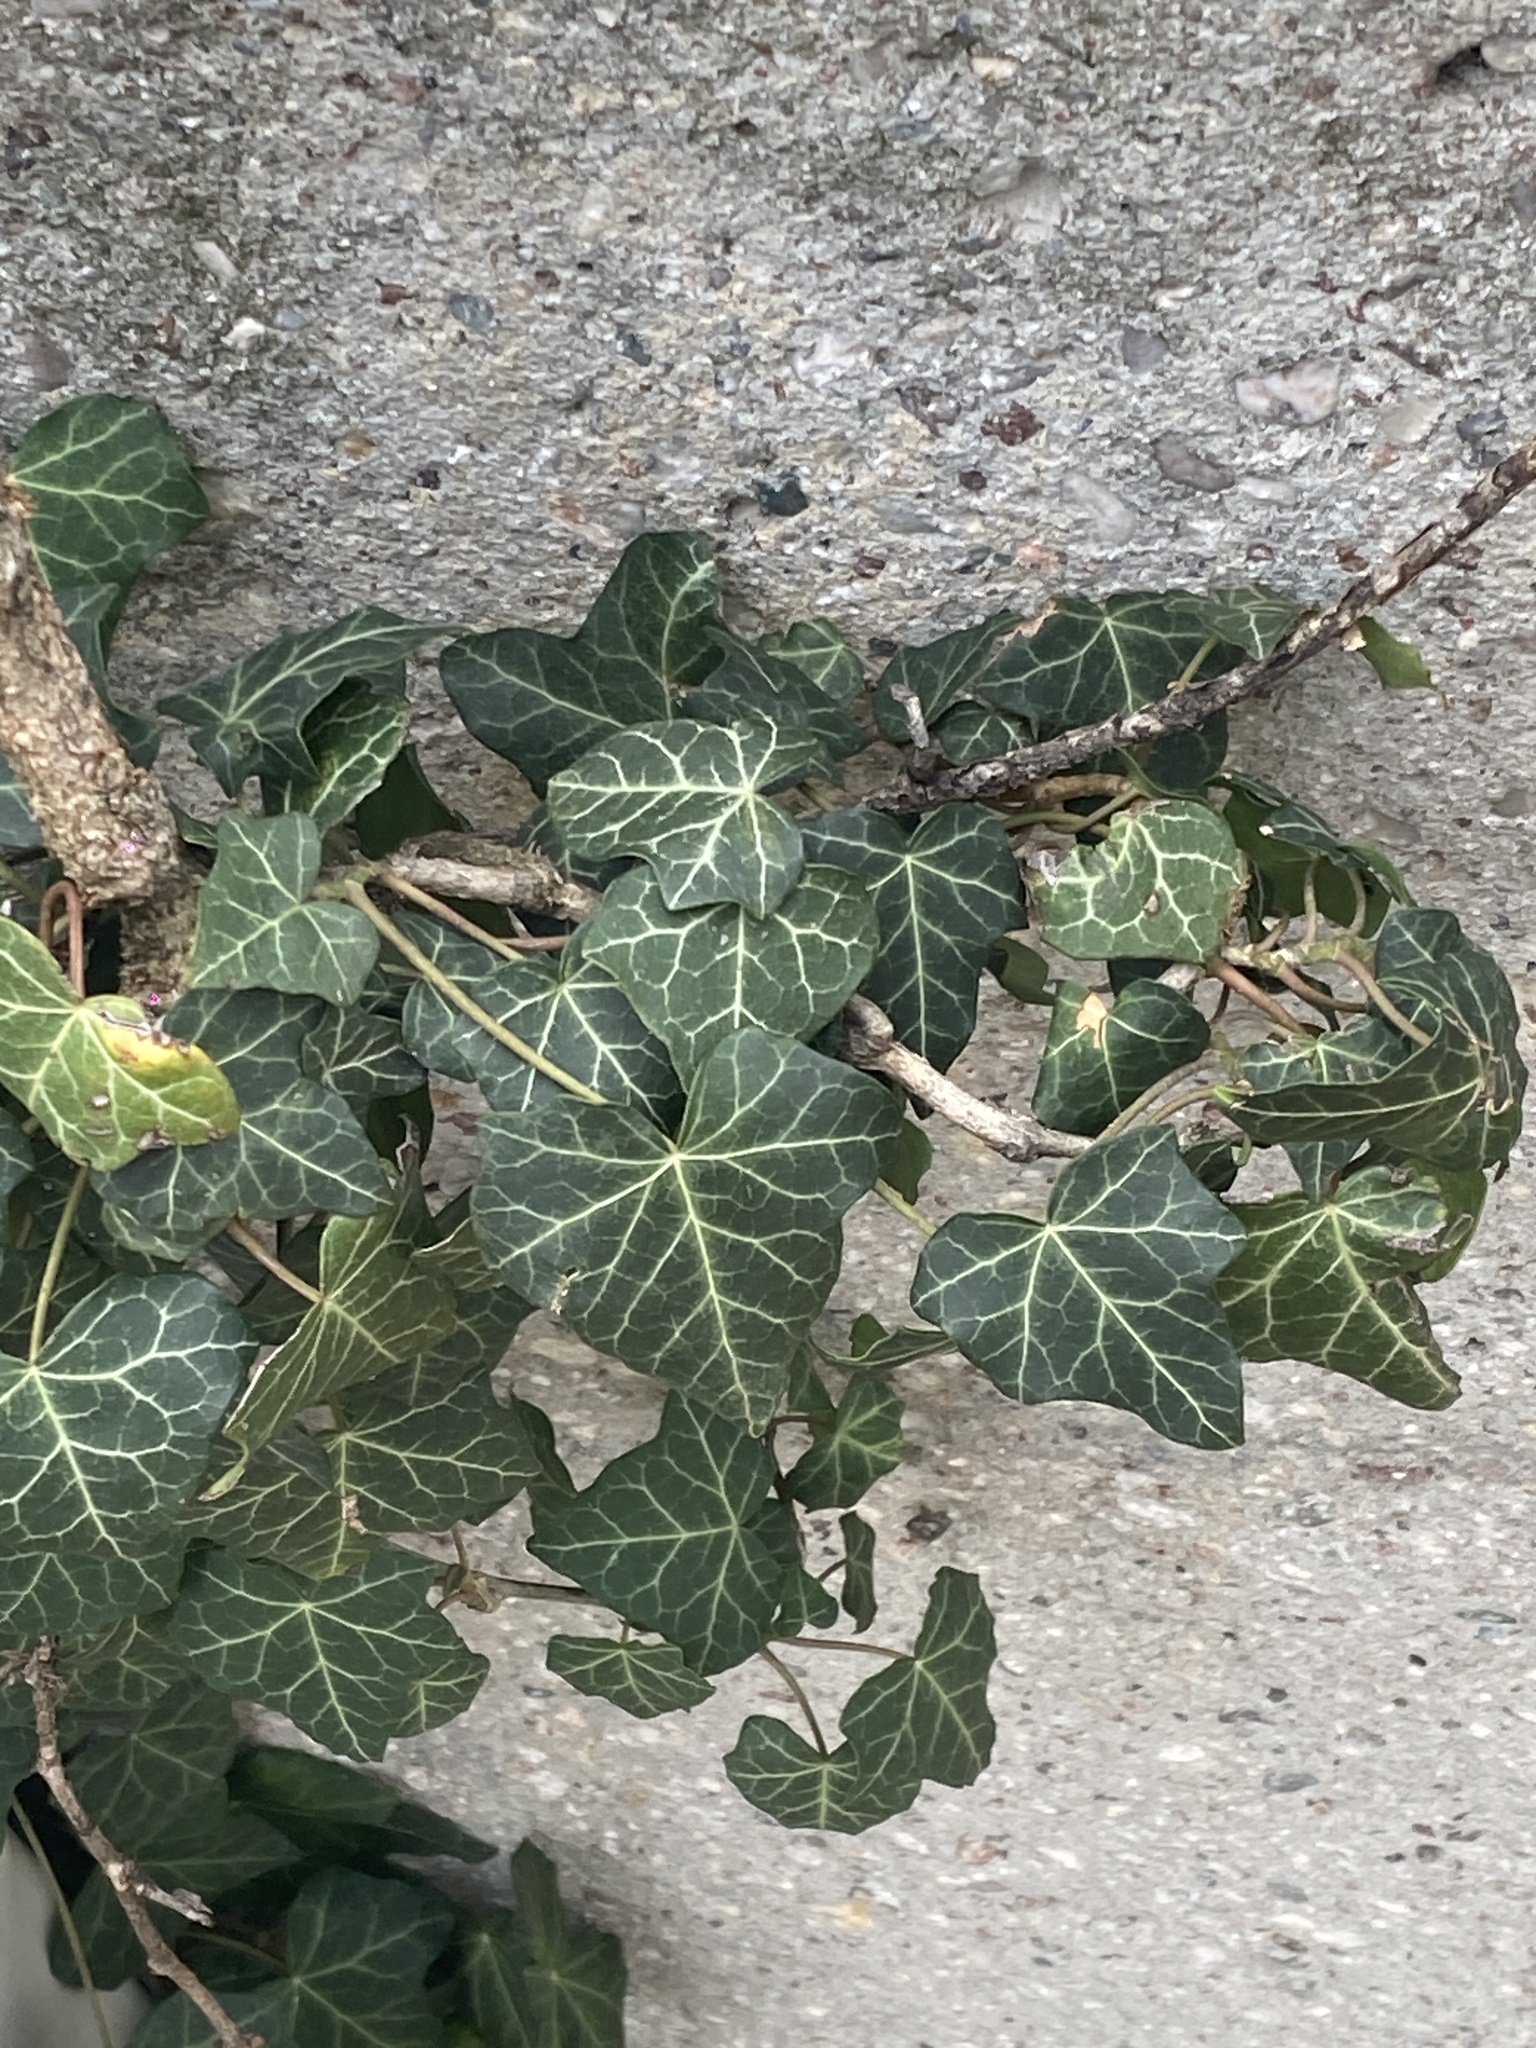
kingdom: Plantae
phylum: Tracheophyta
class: Magnoliopsida
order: Apiales
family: Araliaceae
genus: Hedera
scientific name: Hedera helix
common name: Ivy
